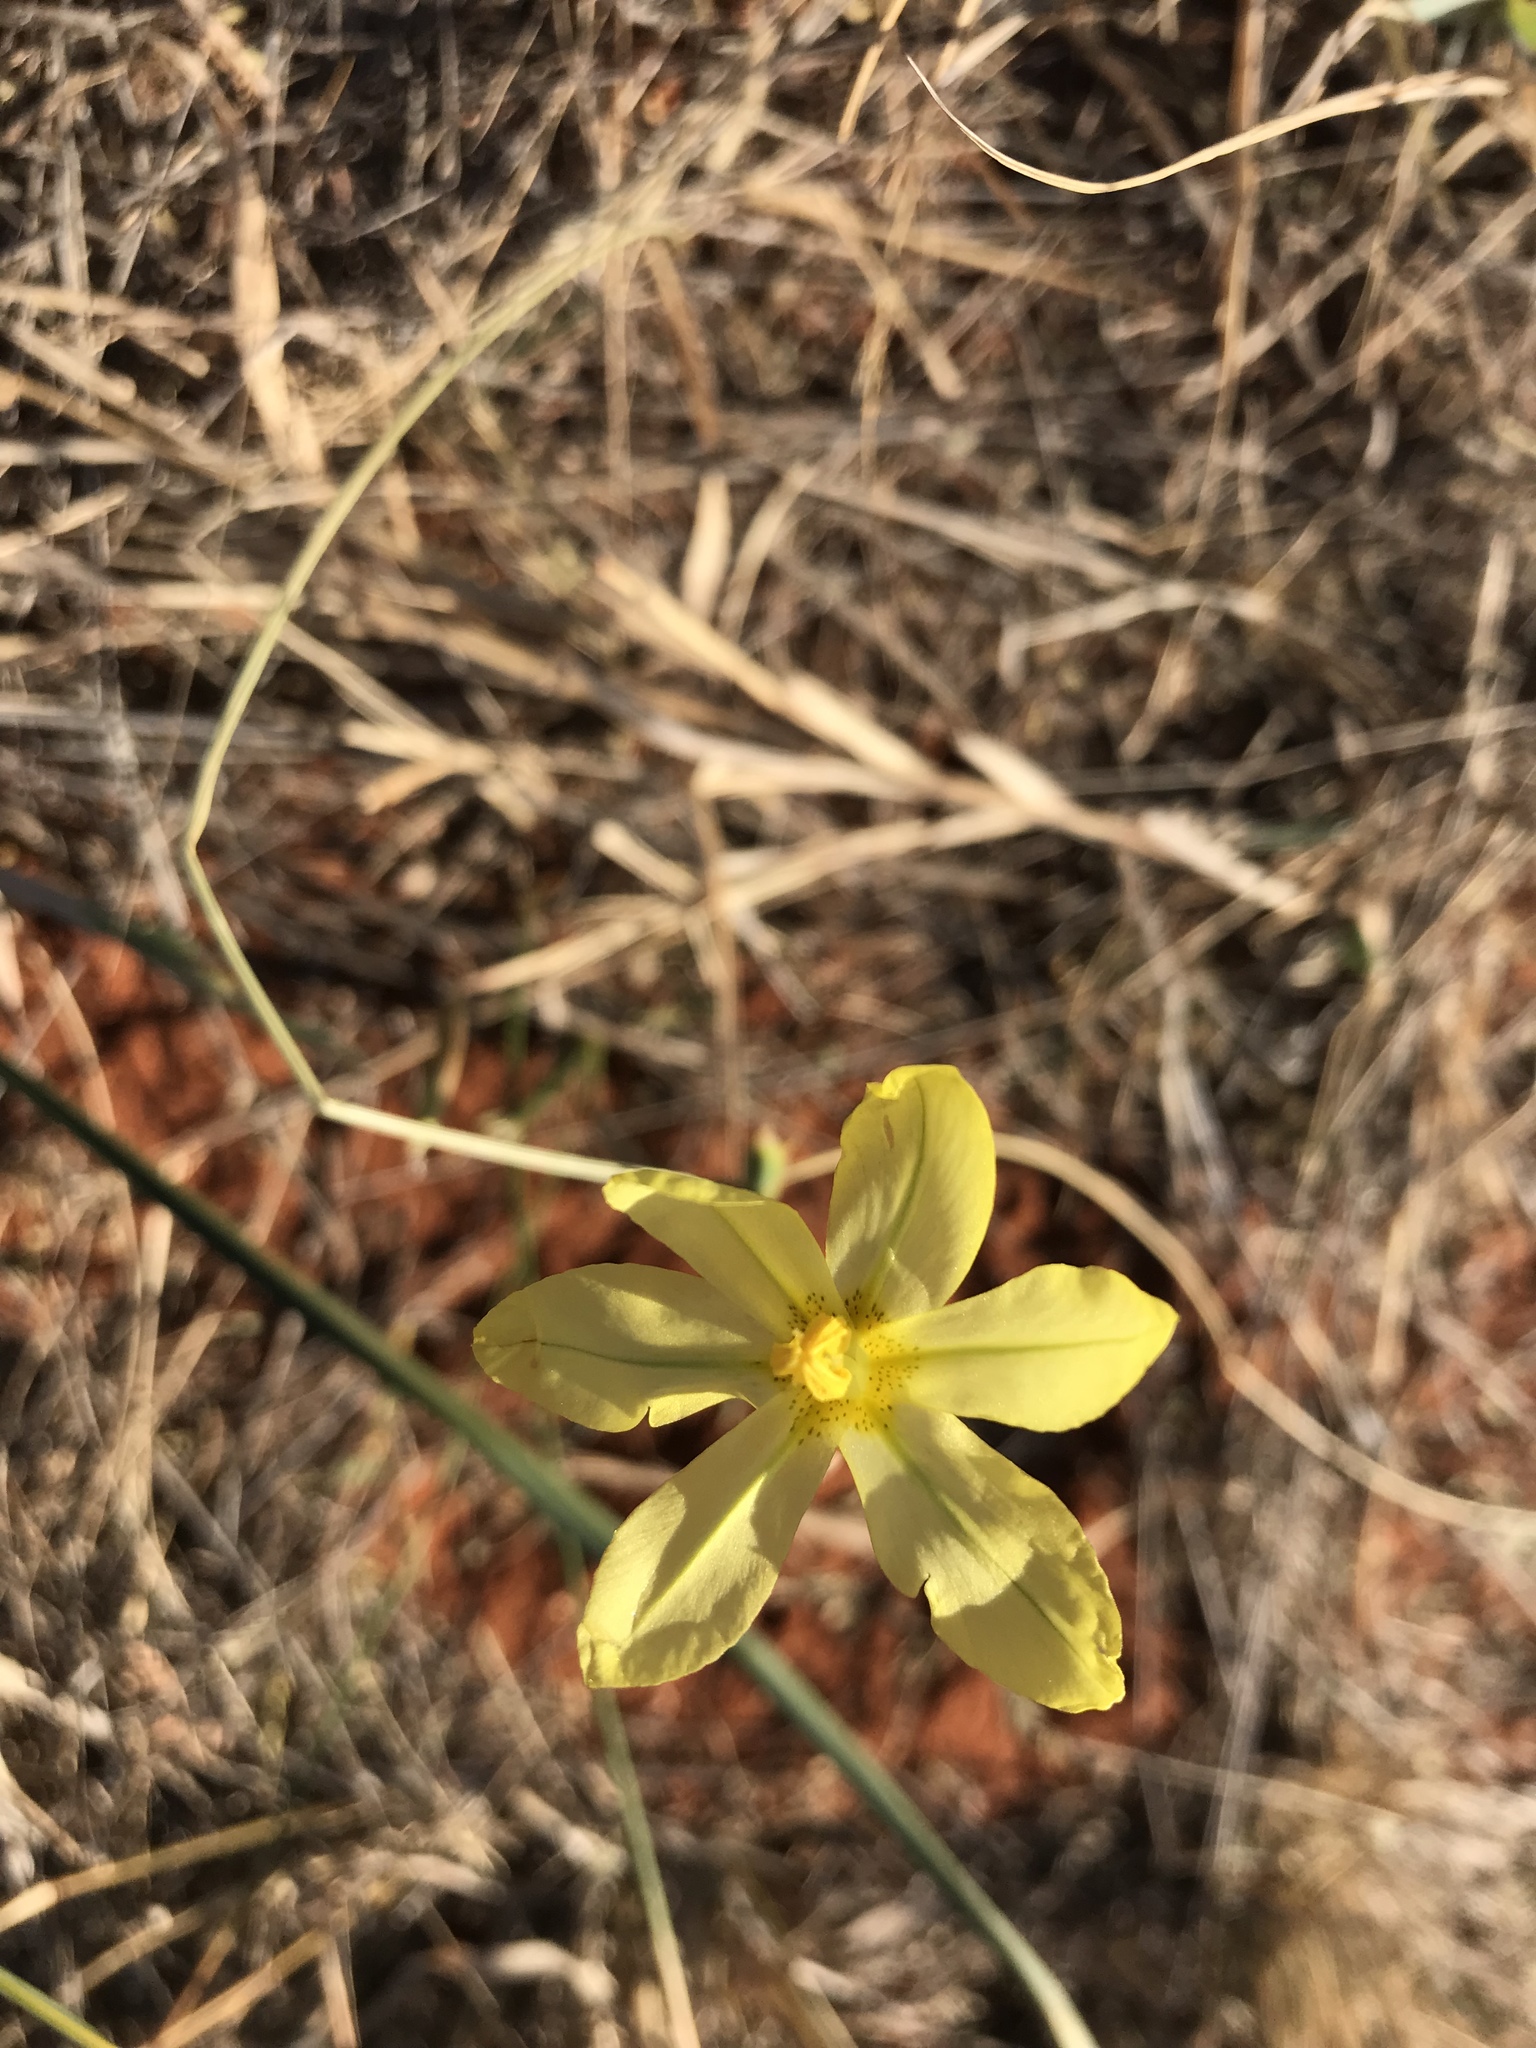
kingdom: Plantae
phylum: Tracheophyta
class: Liliopsida
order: Asparagales
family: Iridaceae
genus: Moraea
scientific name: Moraea pallida
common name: Yellow tulp
